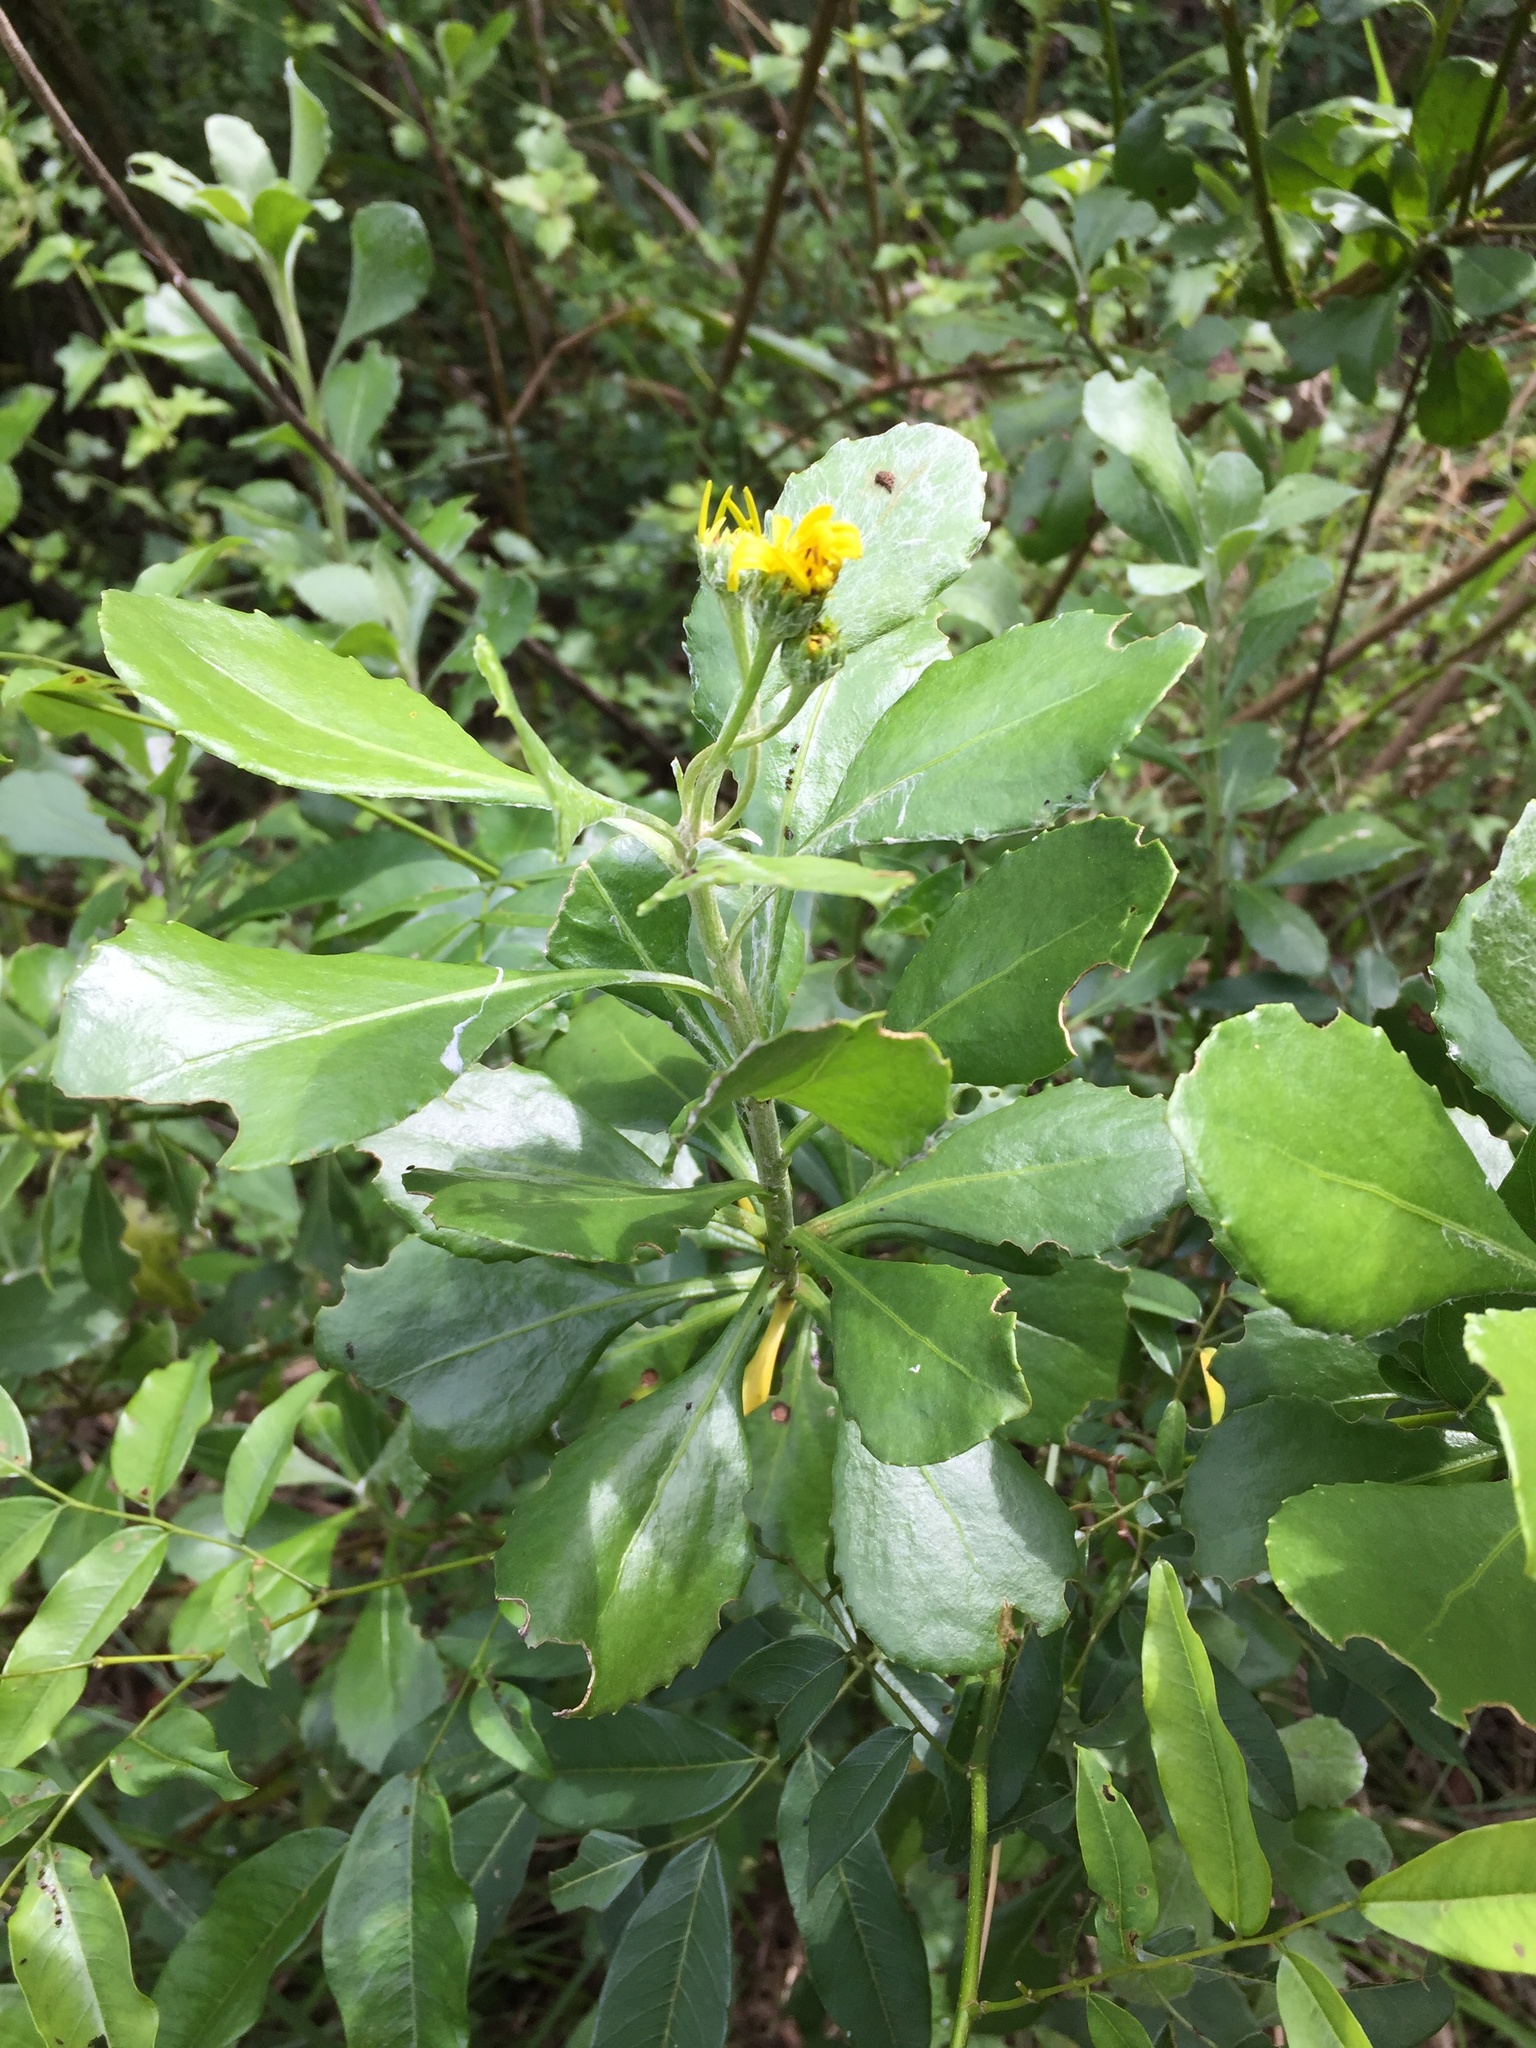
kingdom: Plantae
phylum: Tracheophyta
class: Magnoliopsida
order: Asterales
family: Asteraceae
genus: Osteospermum
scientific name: Osteospermum moniliferum
